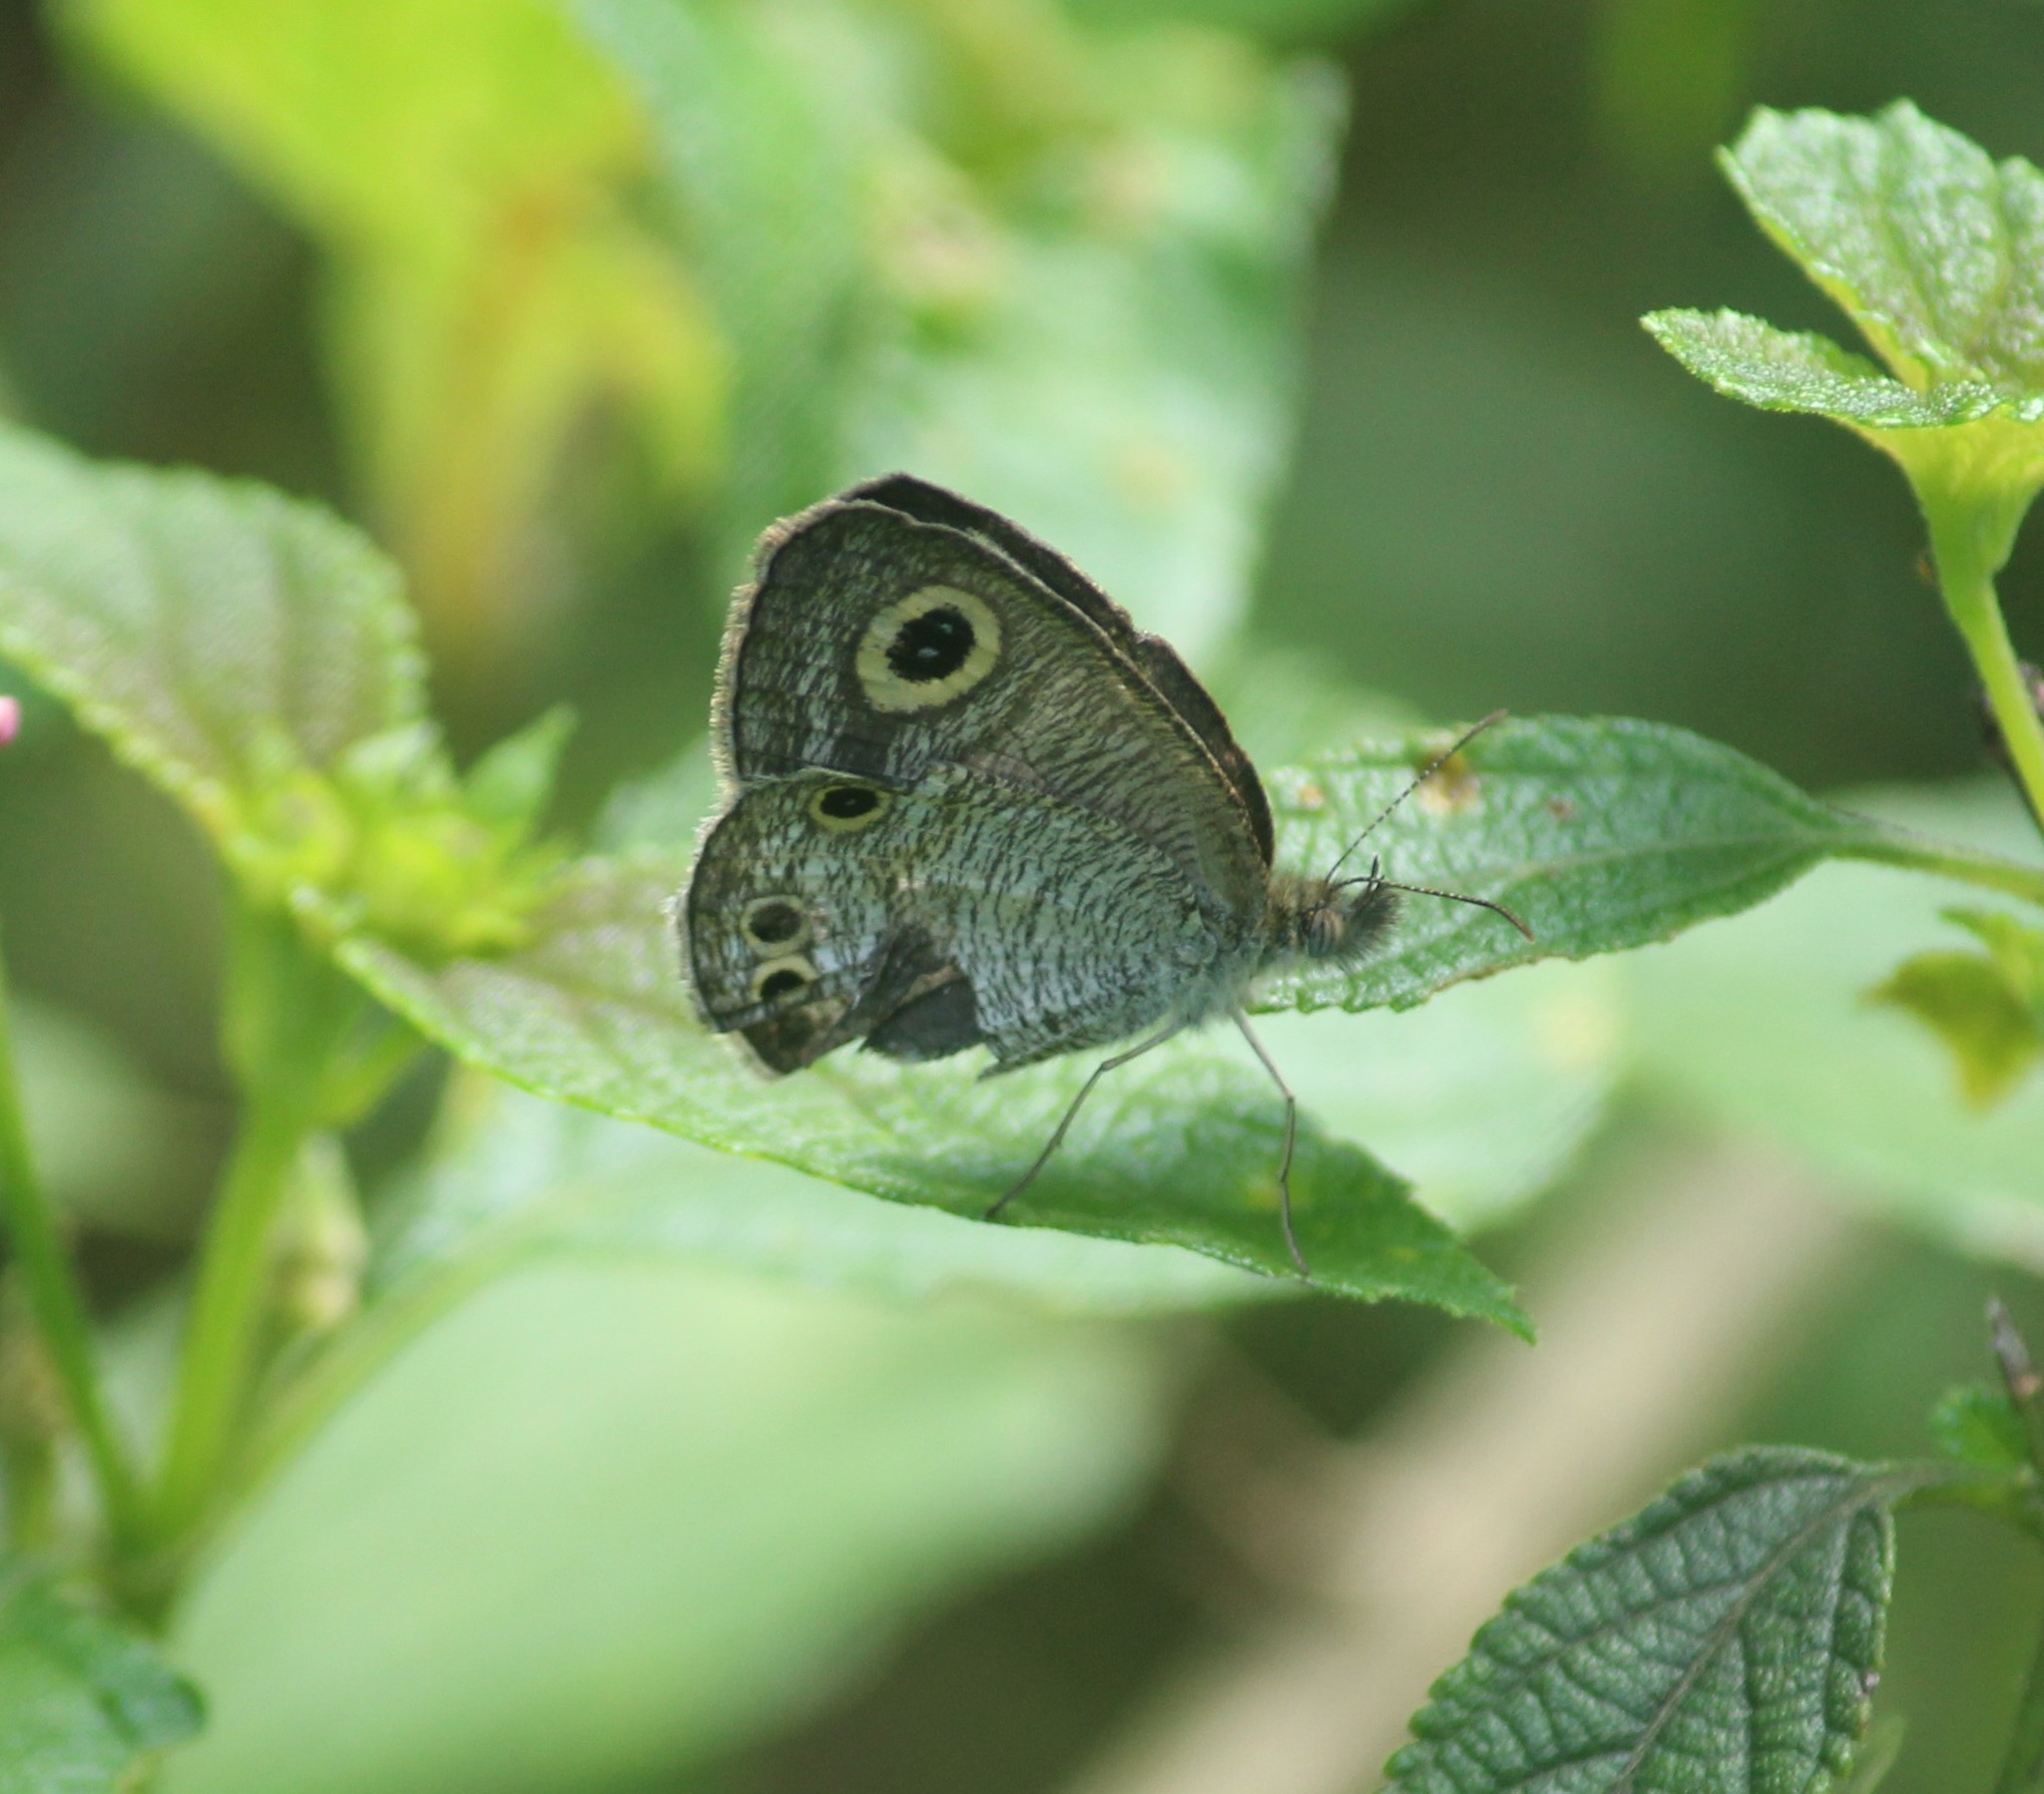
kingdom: Animalia
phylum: Arthropoda
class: Insecta
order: Lepidoptera
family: Nymphalidae
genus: Ypthima
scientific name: Ypthima huebneri
